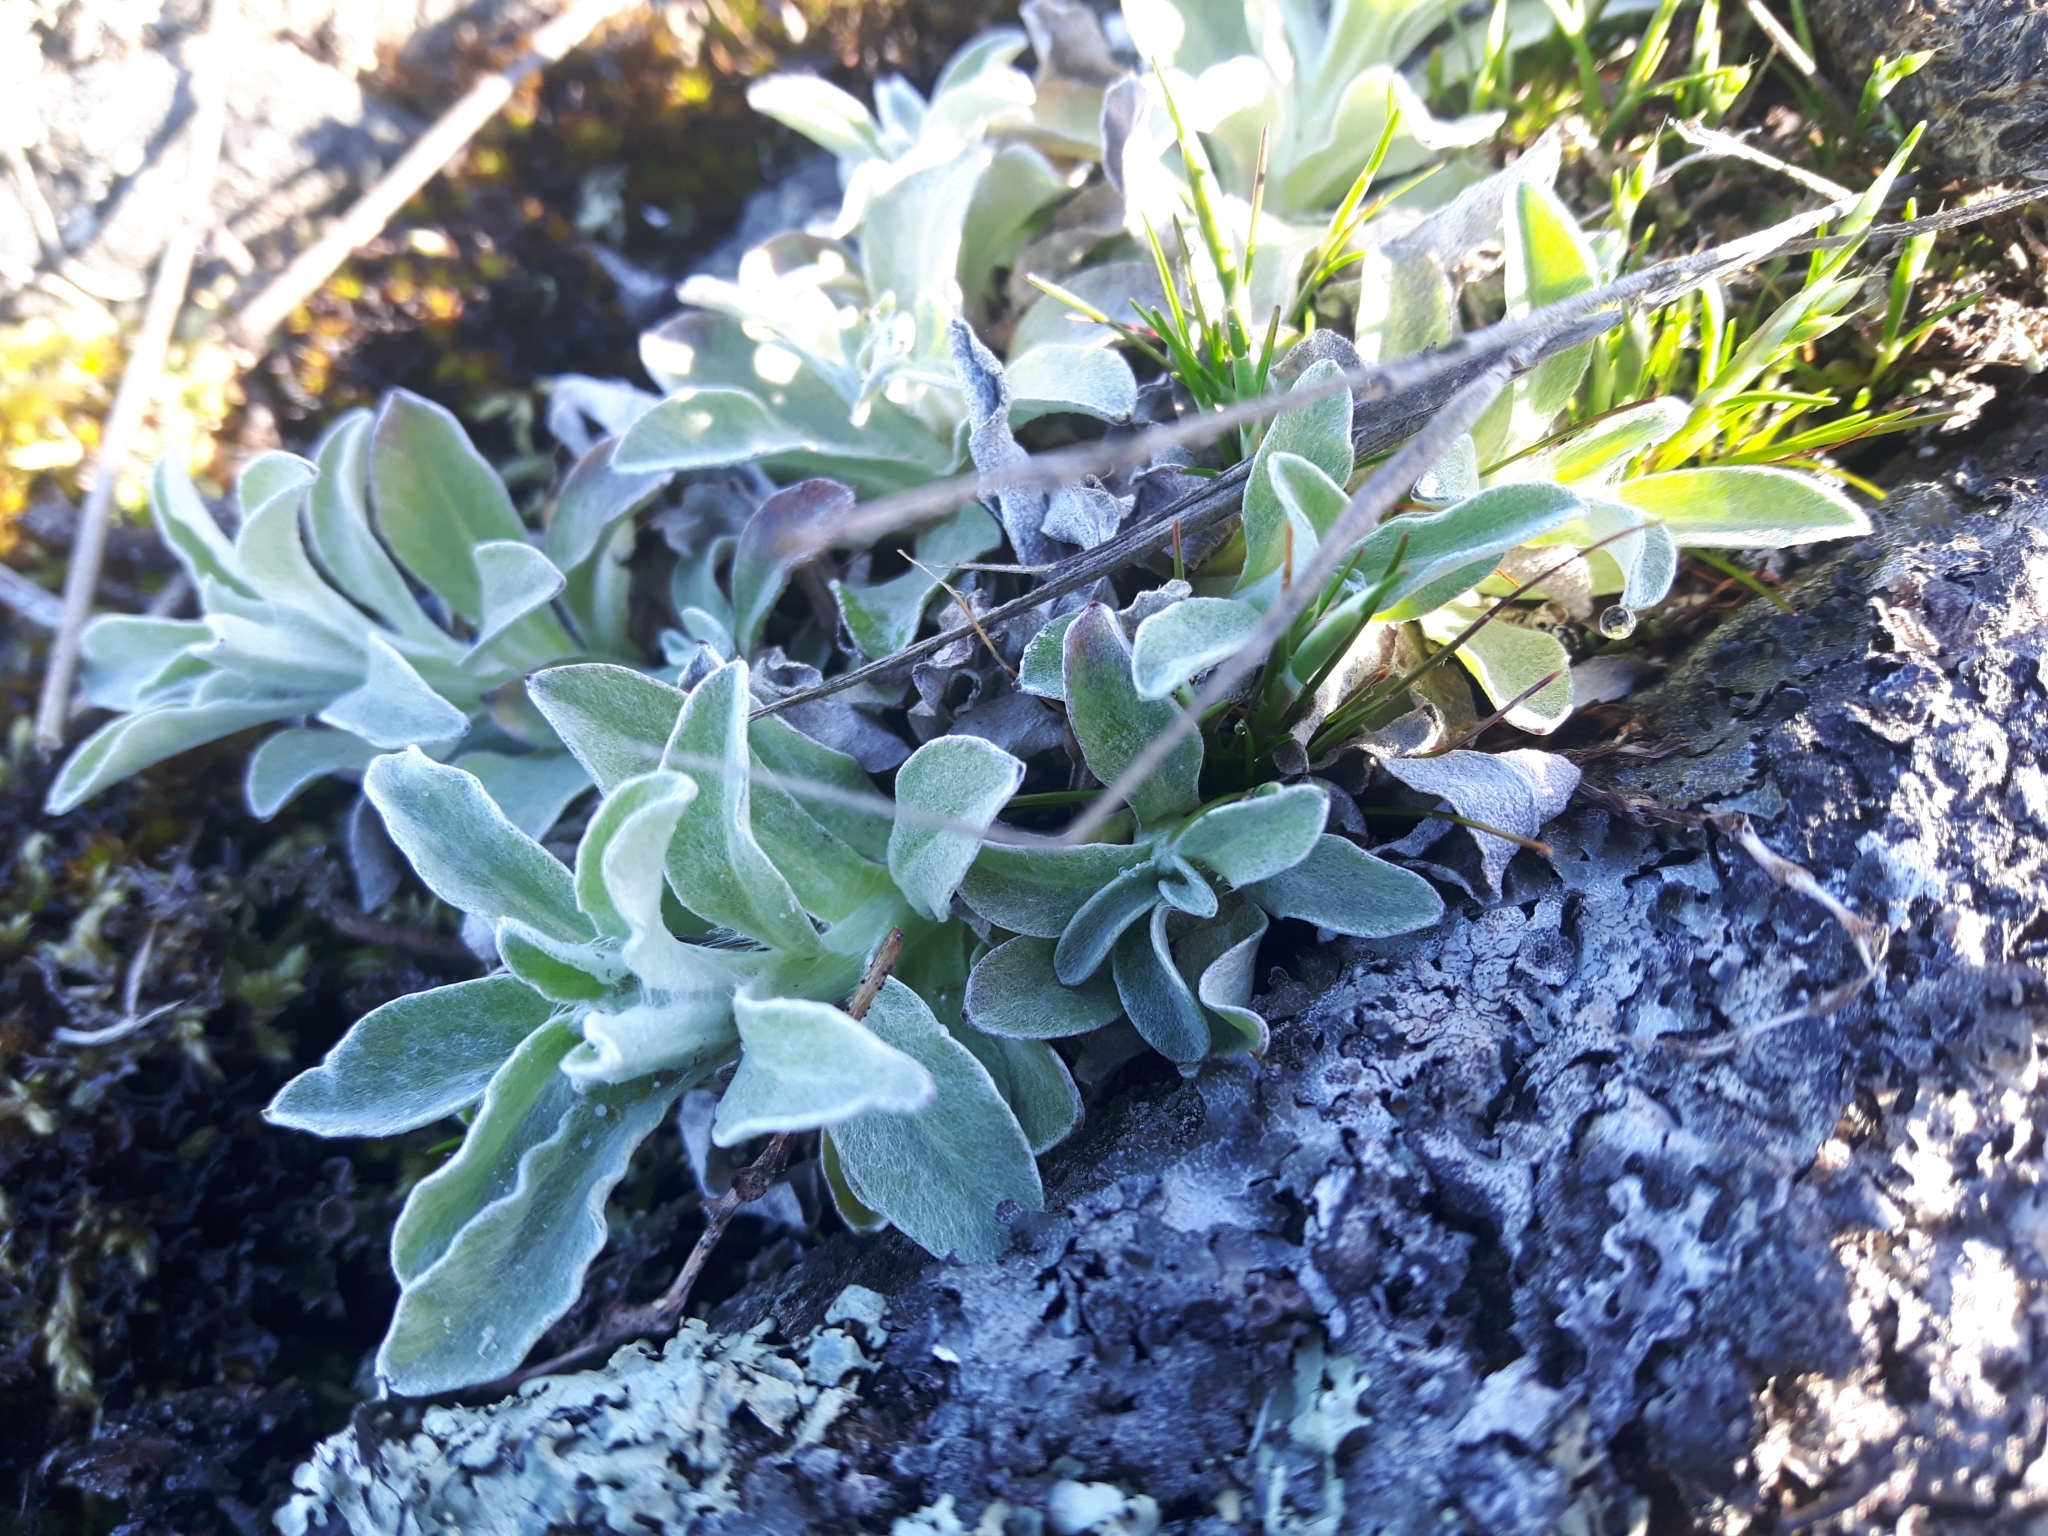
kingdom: Plantae
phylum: Tracheophyta
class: Magnoliopsida
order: Asterales
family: Asteraceae
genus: Gamochaeta
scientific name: Gamochaeta ustulata
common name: Pacific cudweed
